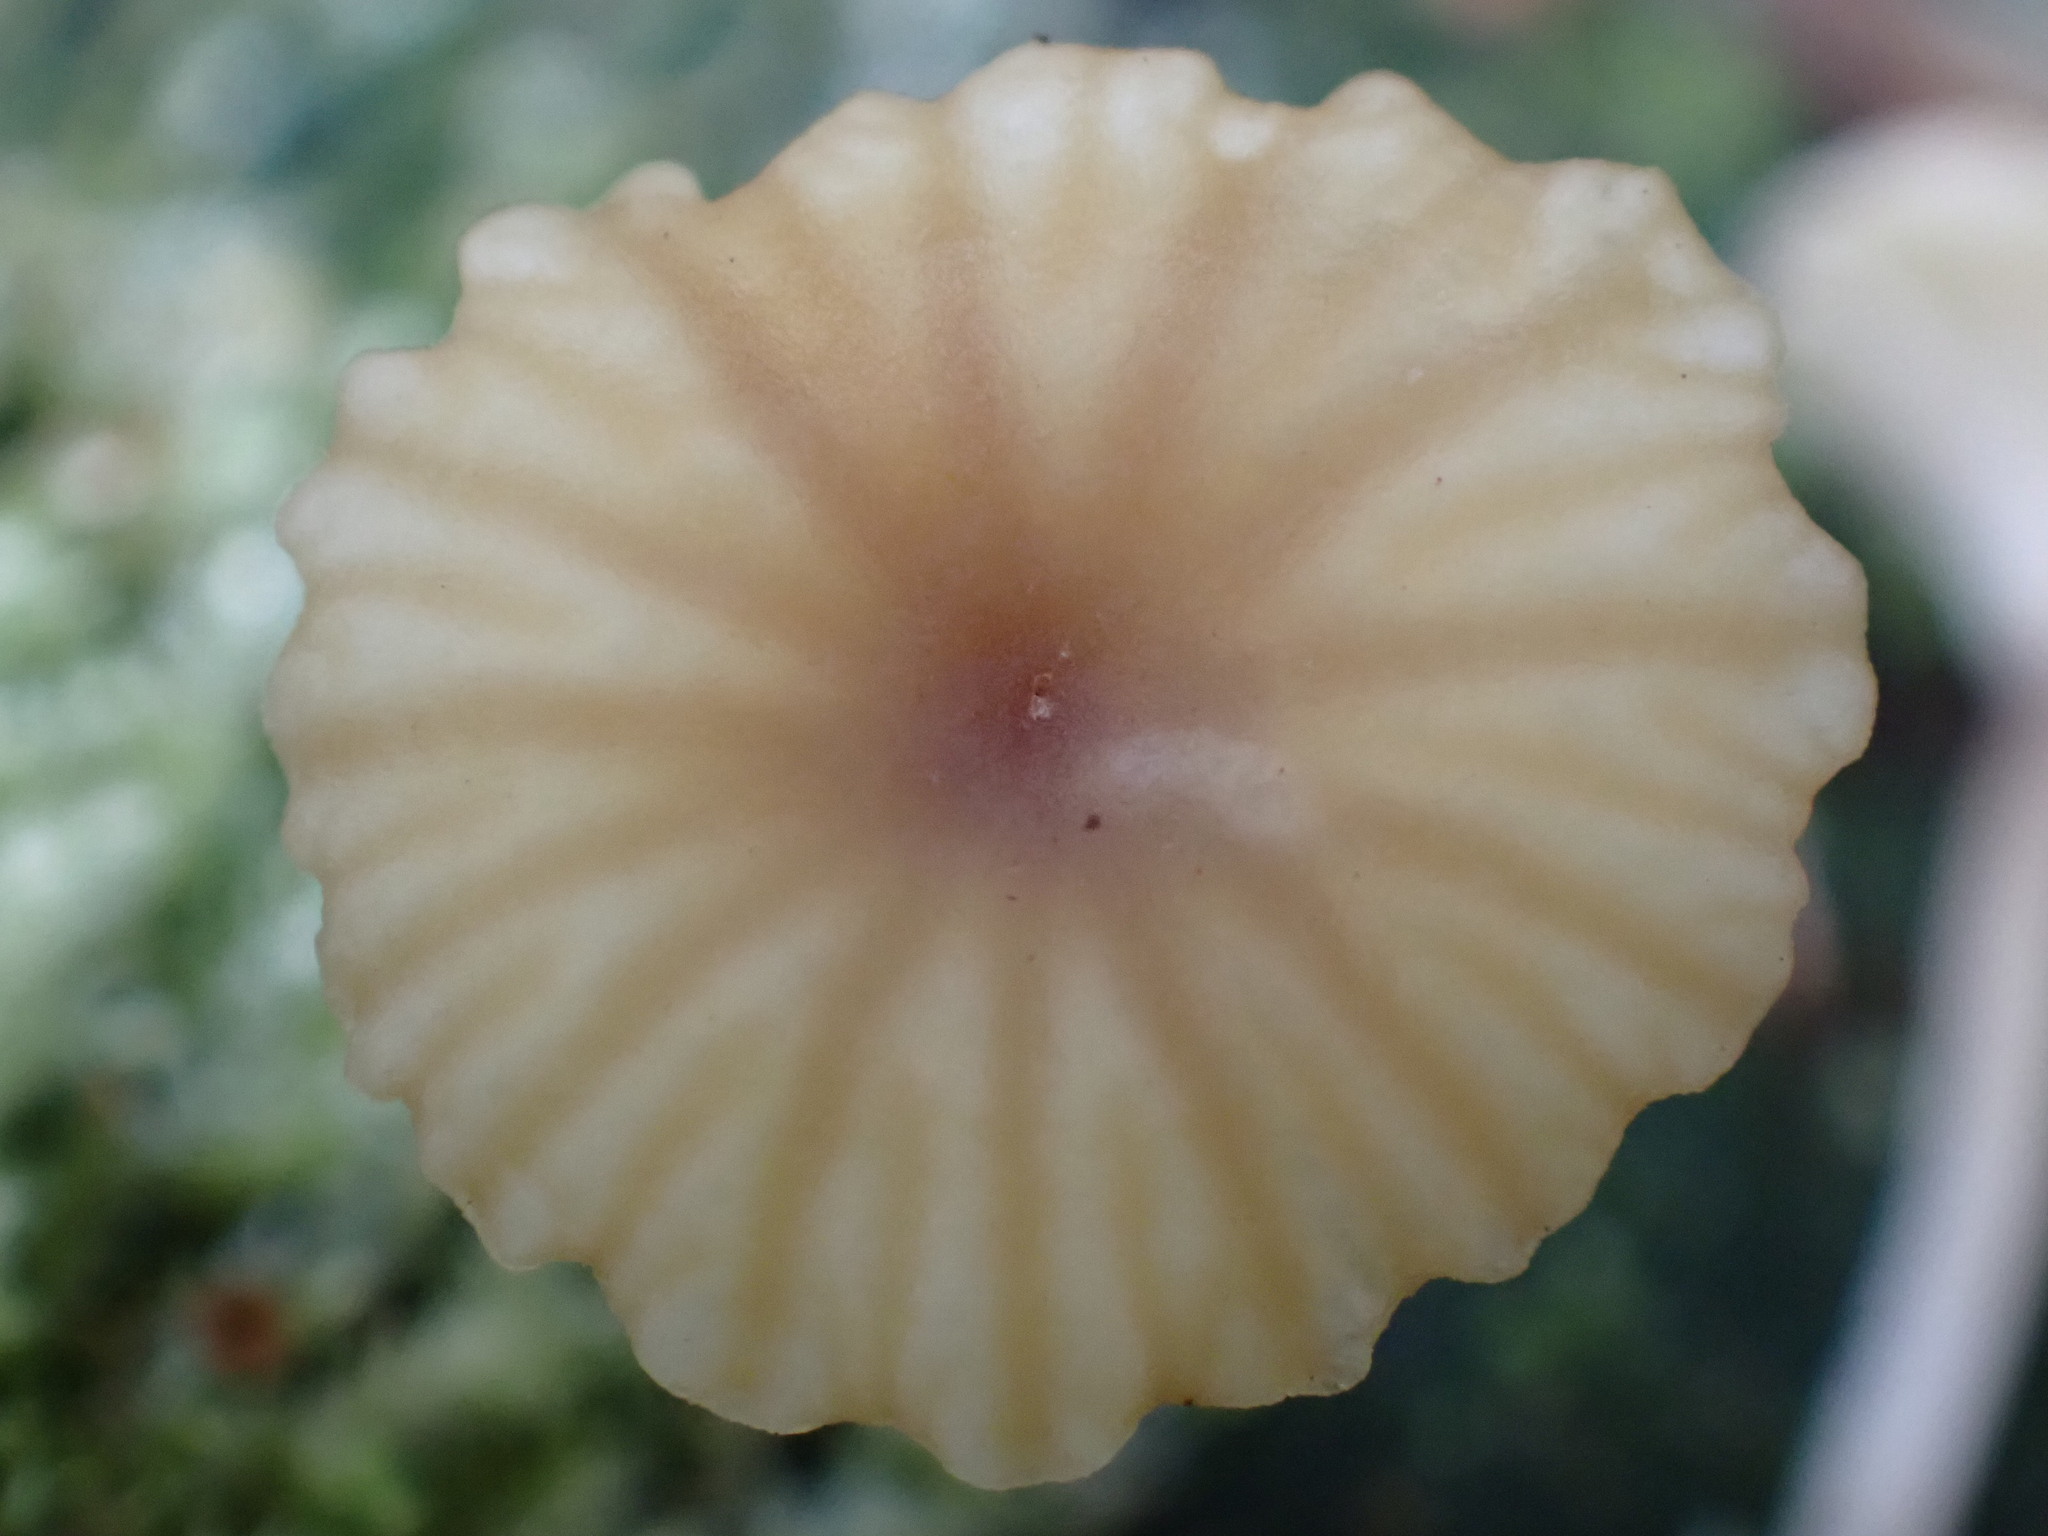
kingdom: Fungi
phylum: Basidiomycota
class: Agaricomycetes
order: Agaricales
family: Hygrophoraceae
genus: Lichenomphalia
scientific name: Lichenomphalia
